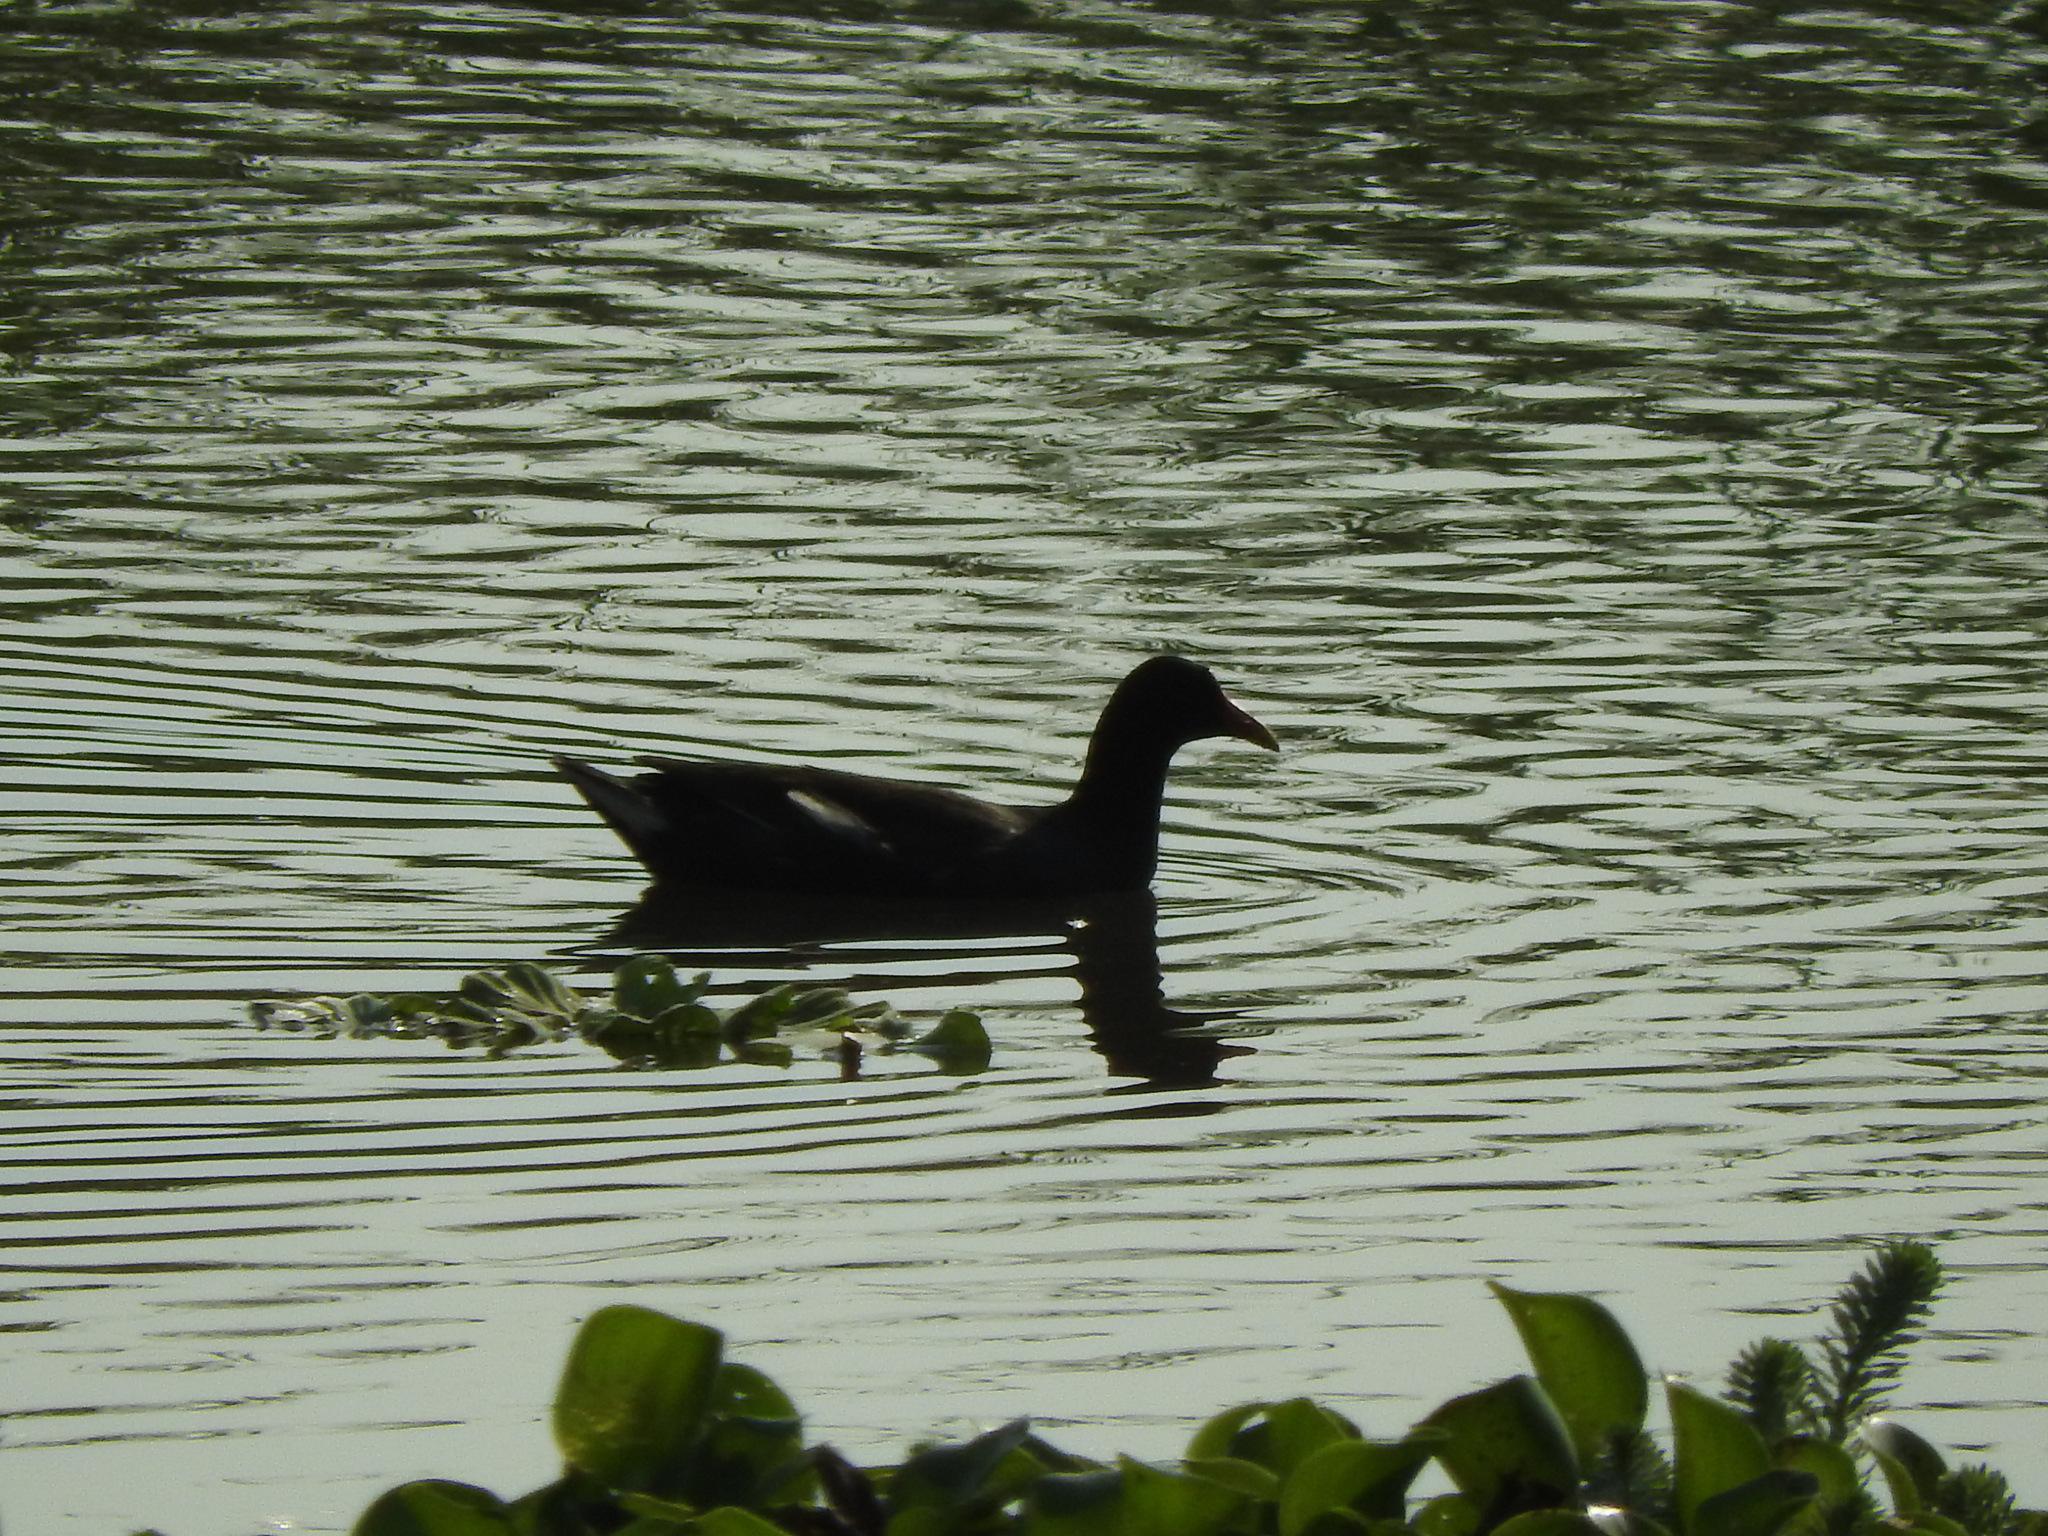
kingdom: Animalia
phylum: Chordata
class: Aves
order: Gruiformes
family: Rallidae
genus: Gallinula
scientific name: Gallinula chloropus
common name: Common moorhen
